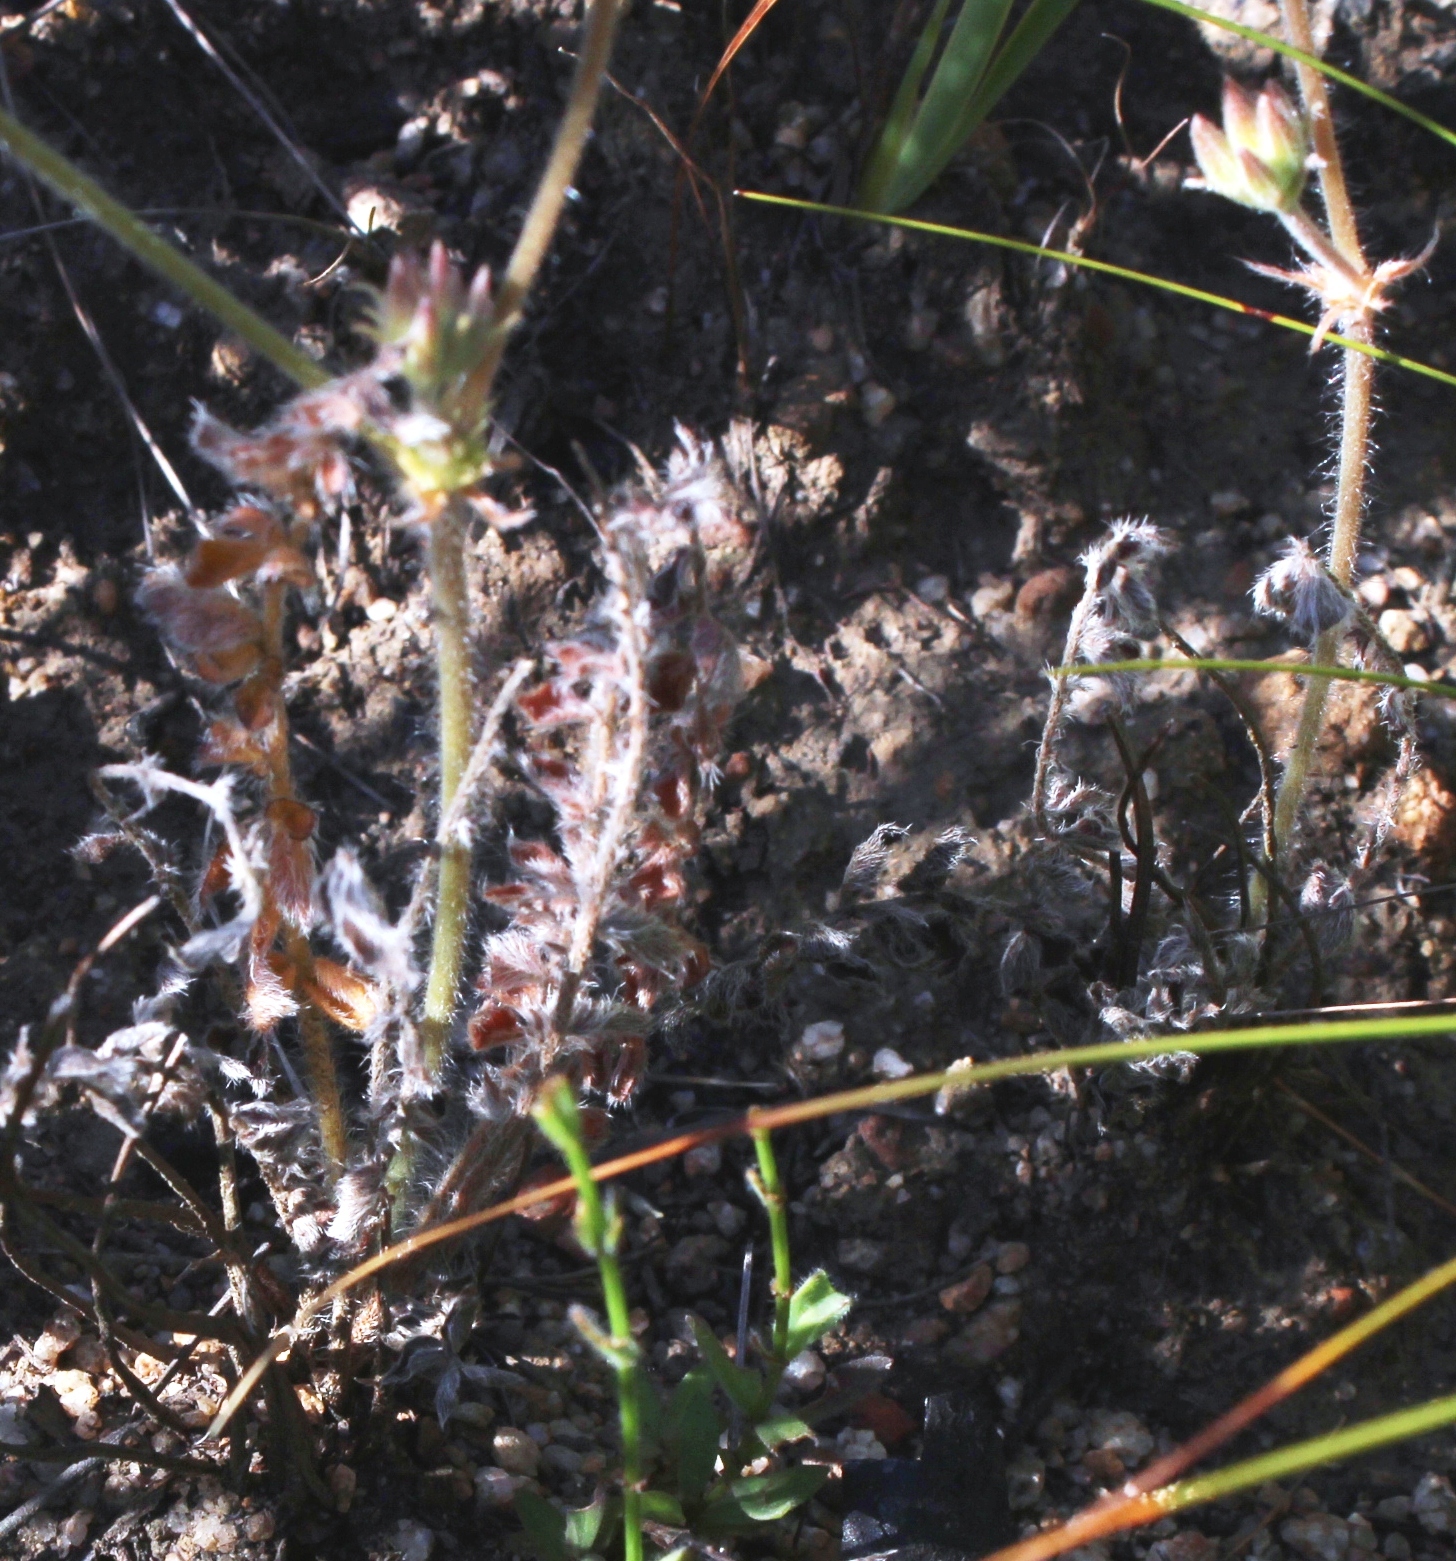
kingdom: Plantae
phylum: Tracheophyta
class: Magnoliopsida
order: Geraniales
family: Geraniaceae
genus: Pelargonium
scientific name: Pelargonium pinnatum
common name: Pinnated pelargonium
